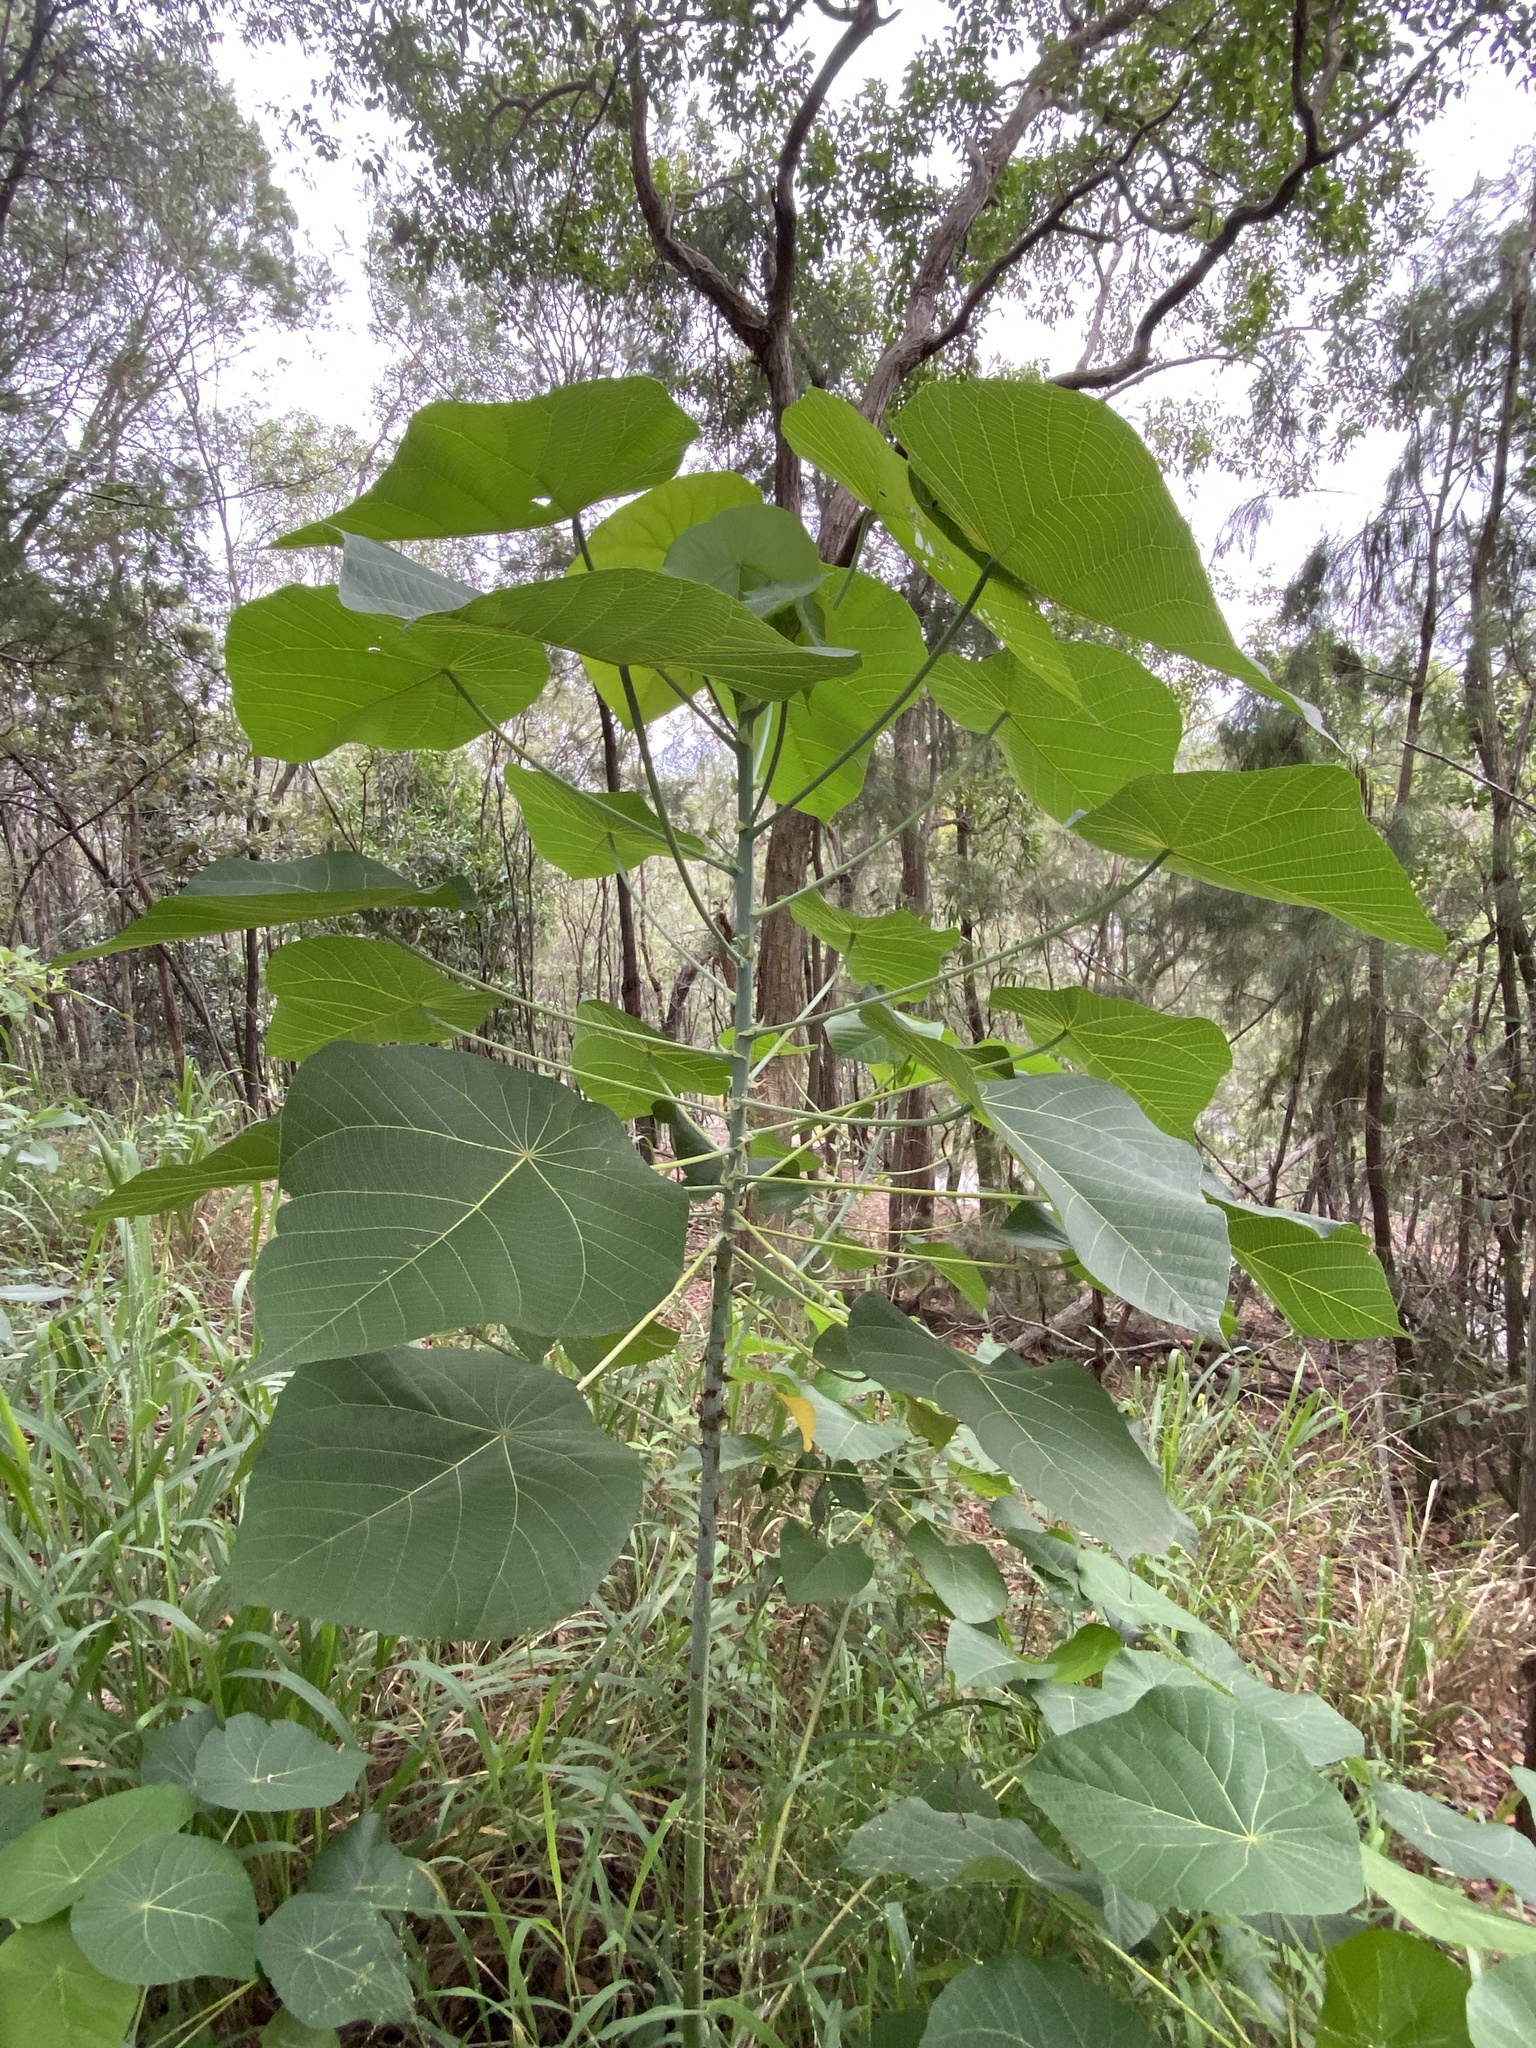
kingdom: Plantae
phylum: Tracheophyta
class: Magnoliopsida
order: Malpighiales
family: Euphorbiaceae
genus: Macaranga
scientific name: Macaranga tanarius
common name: Parasol leaf tree
